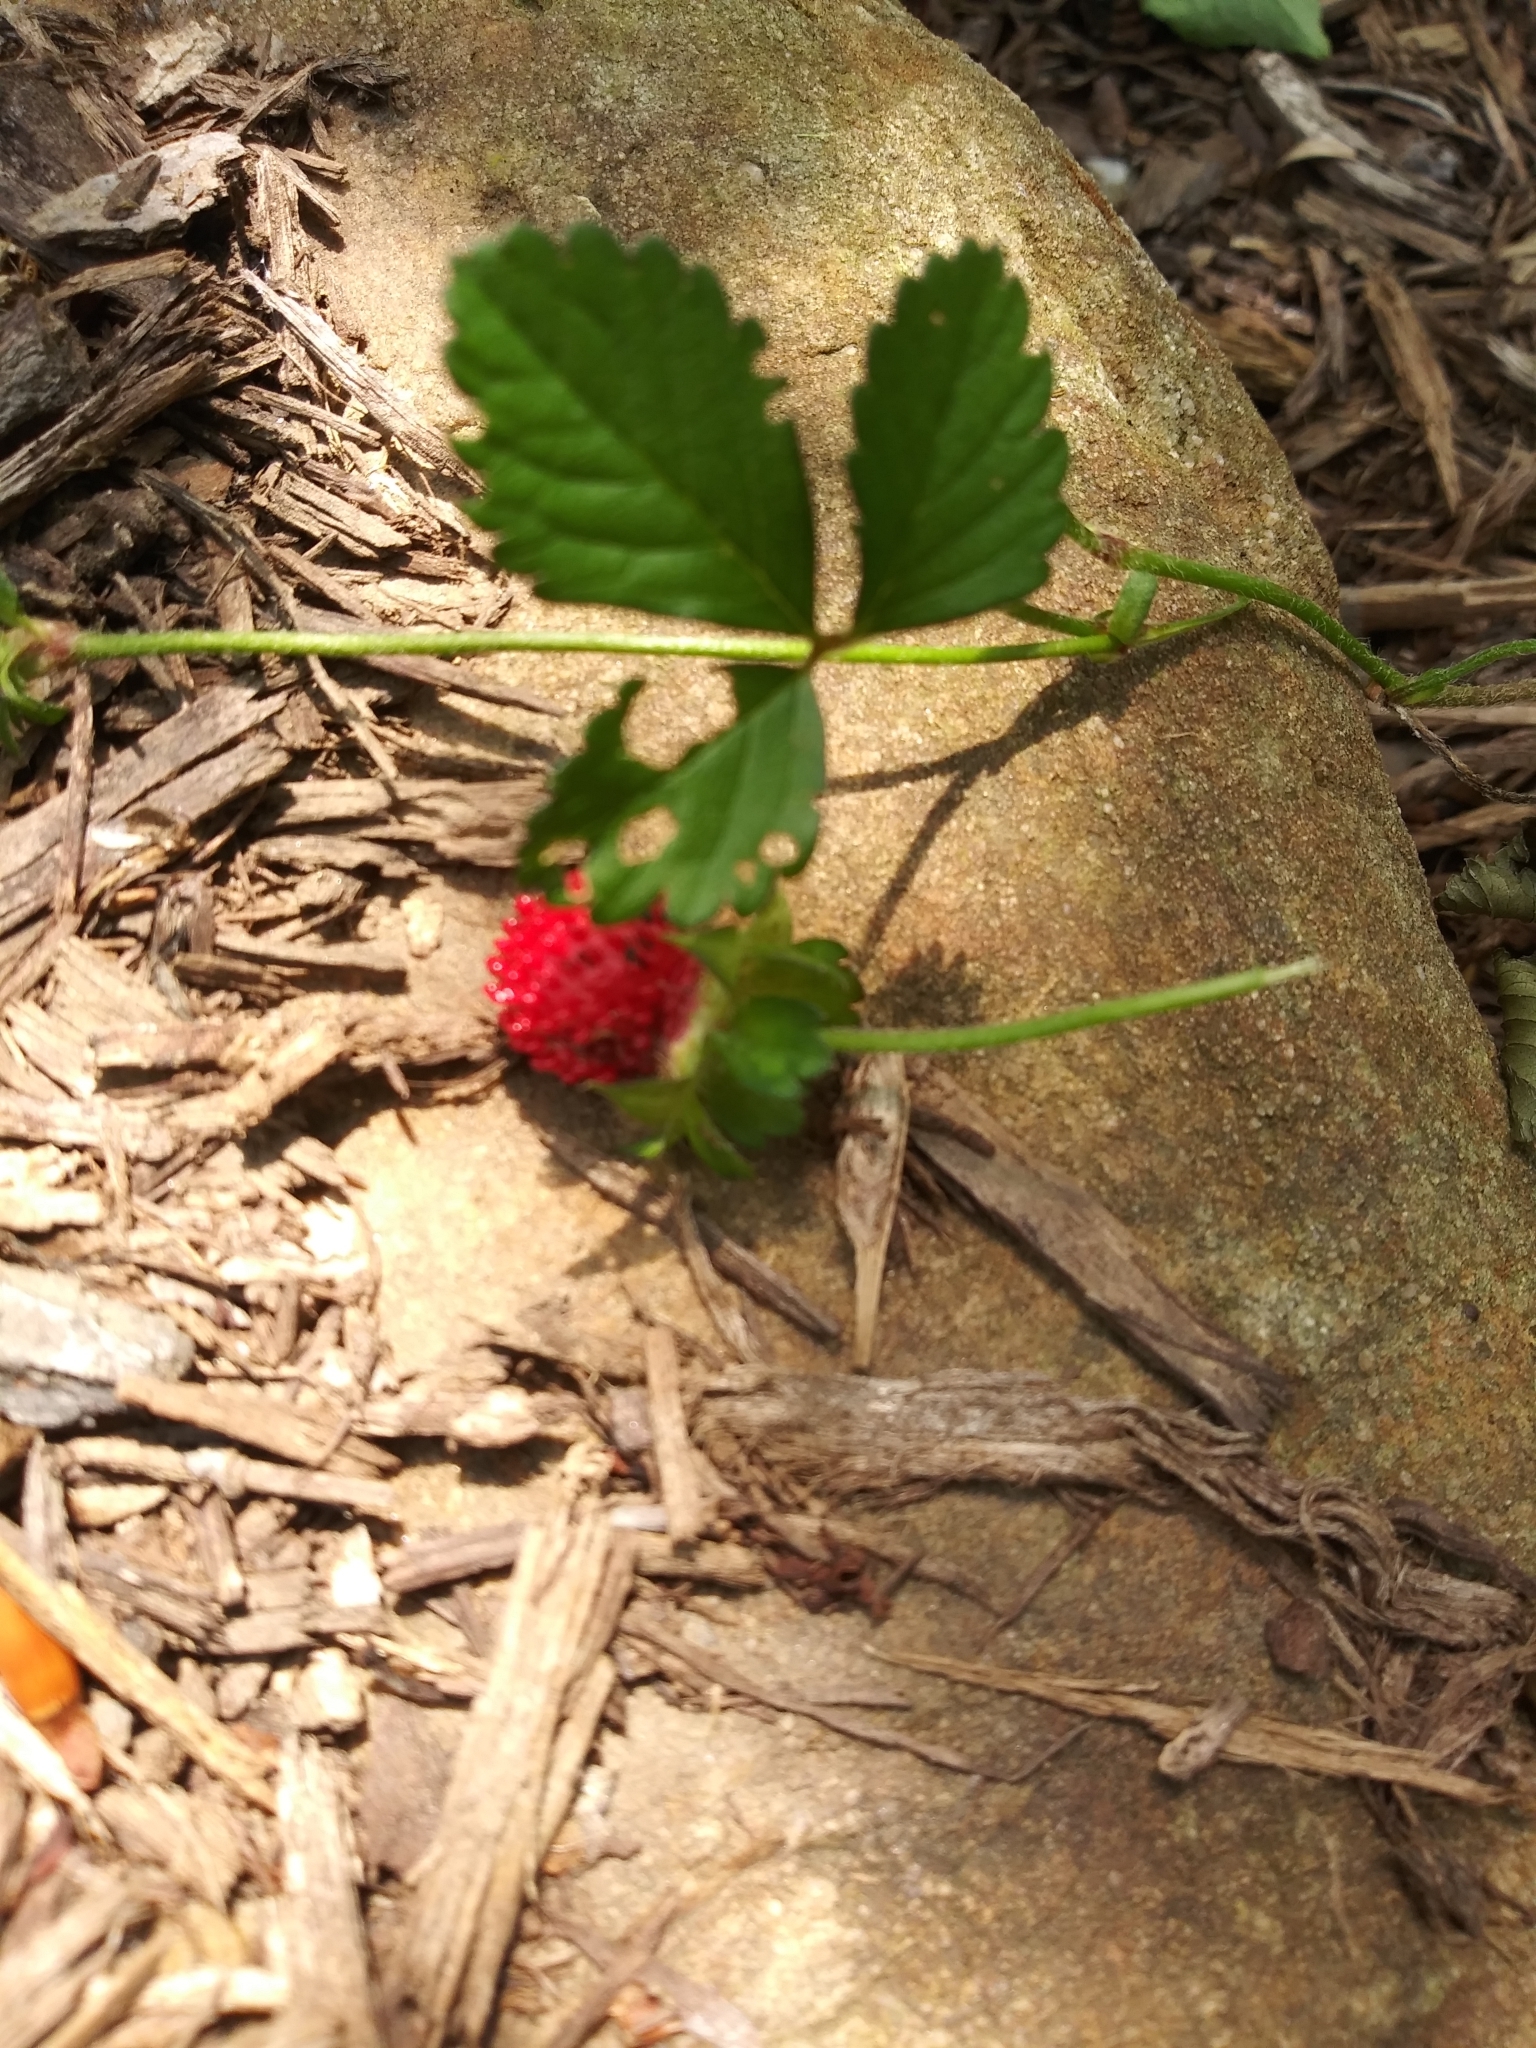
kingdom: Plantae
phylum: Tracheophyta
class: Magnoliopsida
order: Rosales
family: Rosaceae
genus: Potentilla
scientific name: Potentilla indica
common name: Yellow-flowered strawberry
